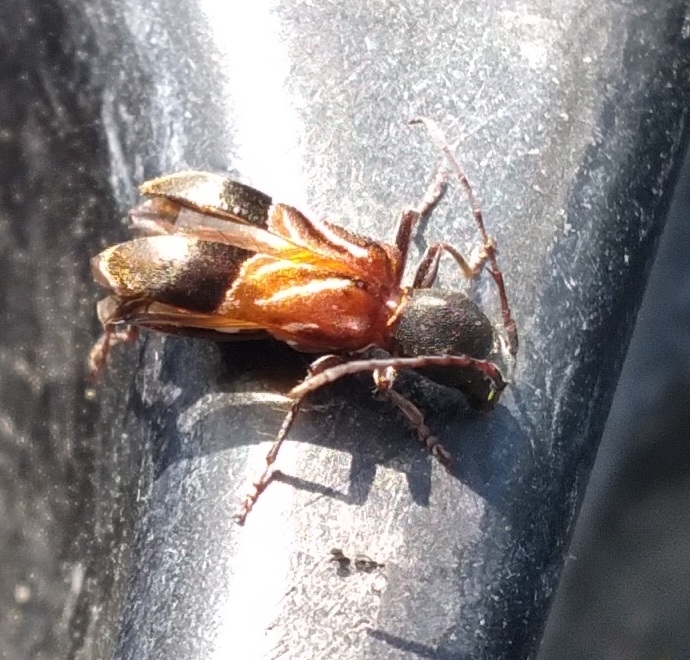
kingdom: Animalia
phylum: Arthropoda
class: Insecta
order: Coleoptera
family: Cerambycidae
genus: Cyrtophorus
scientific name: Cyrtophorus verrucosus
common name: Ant-like longhorn beetle
